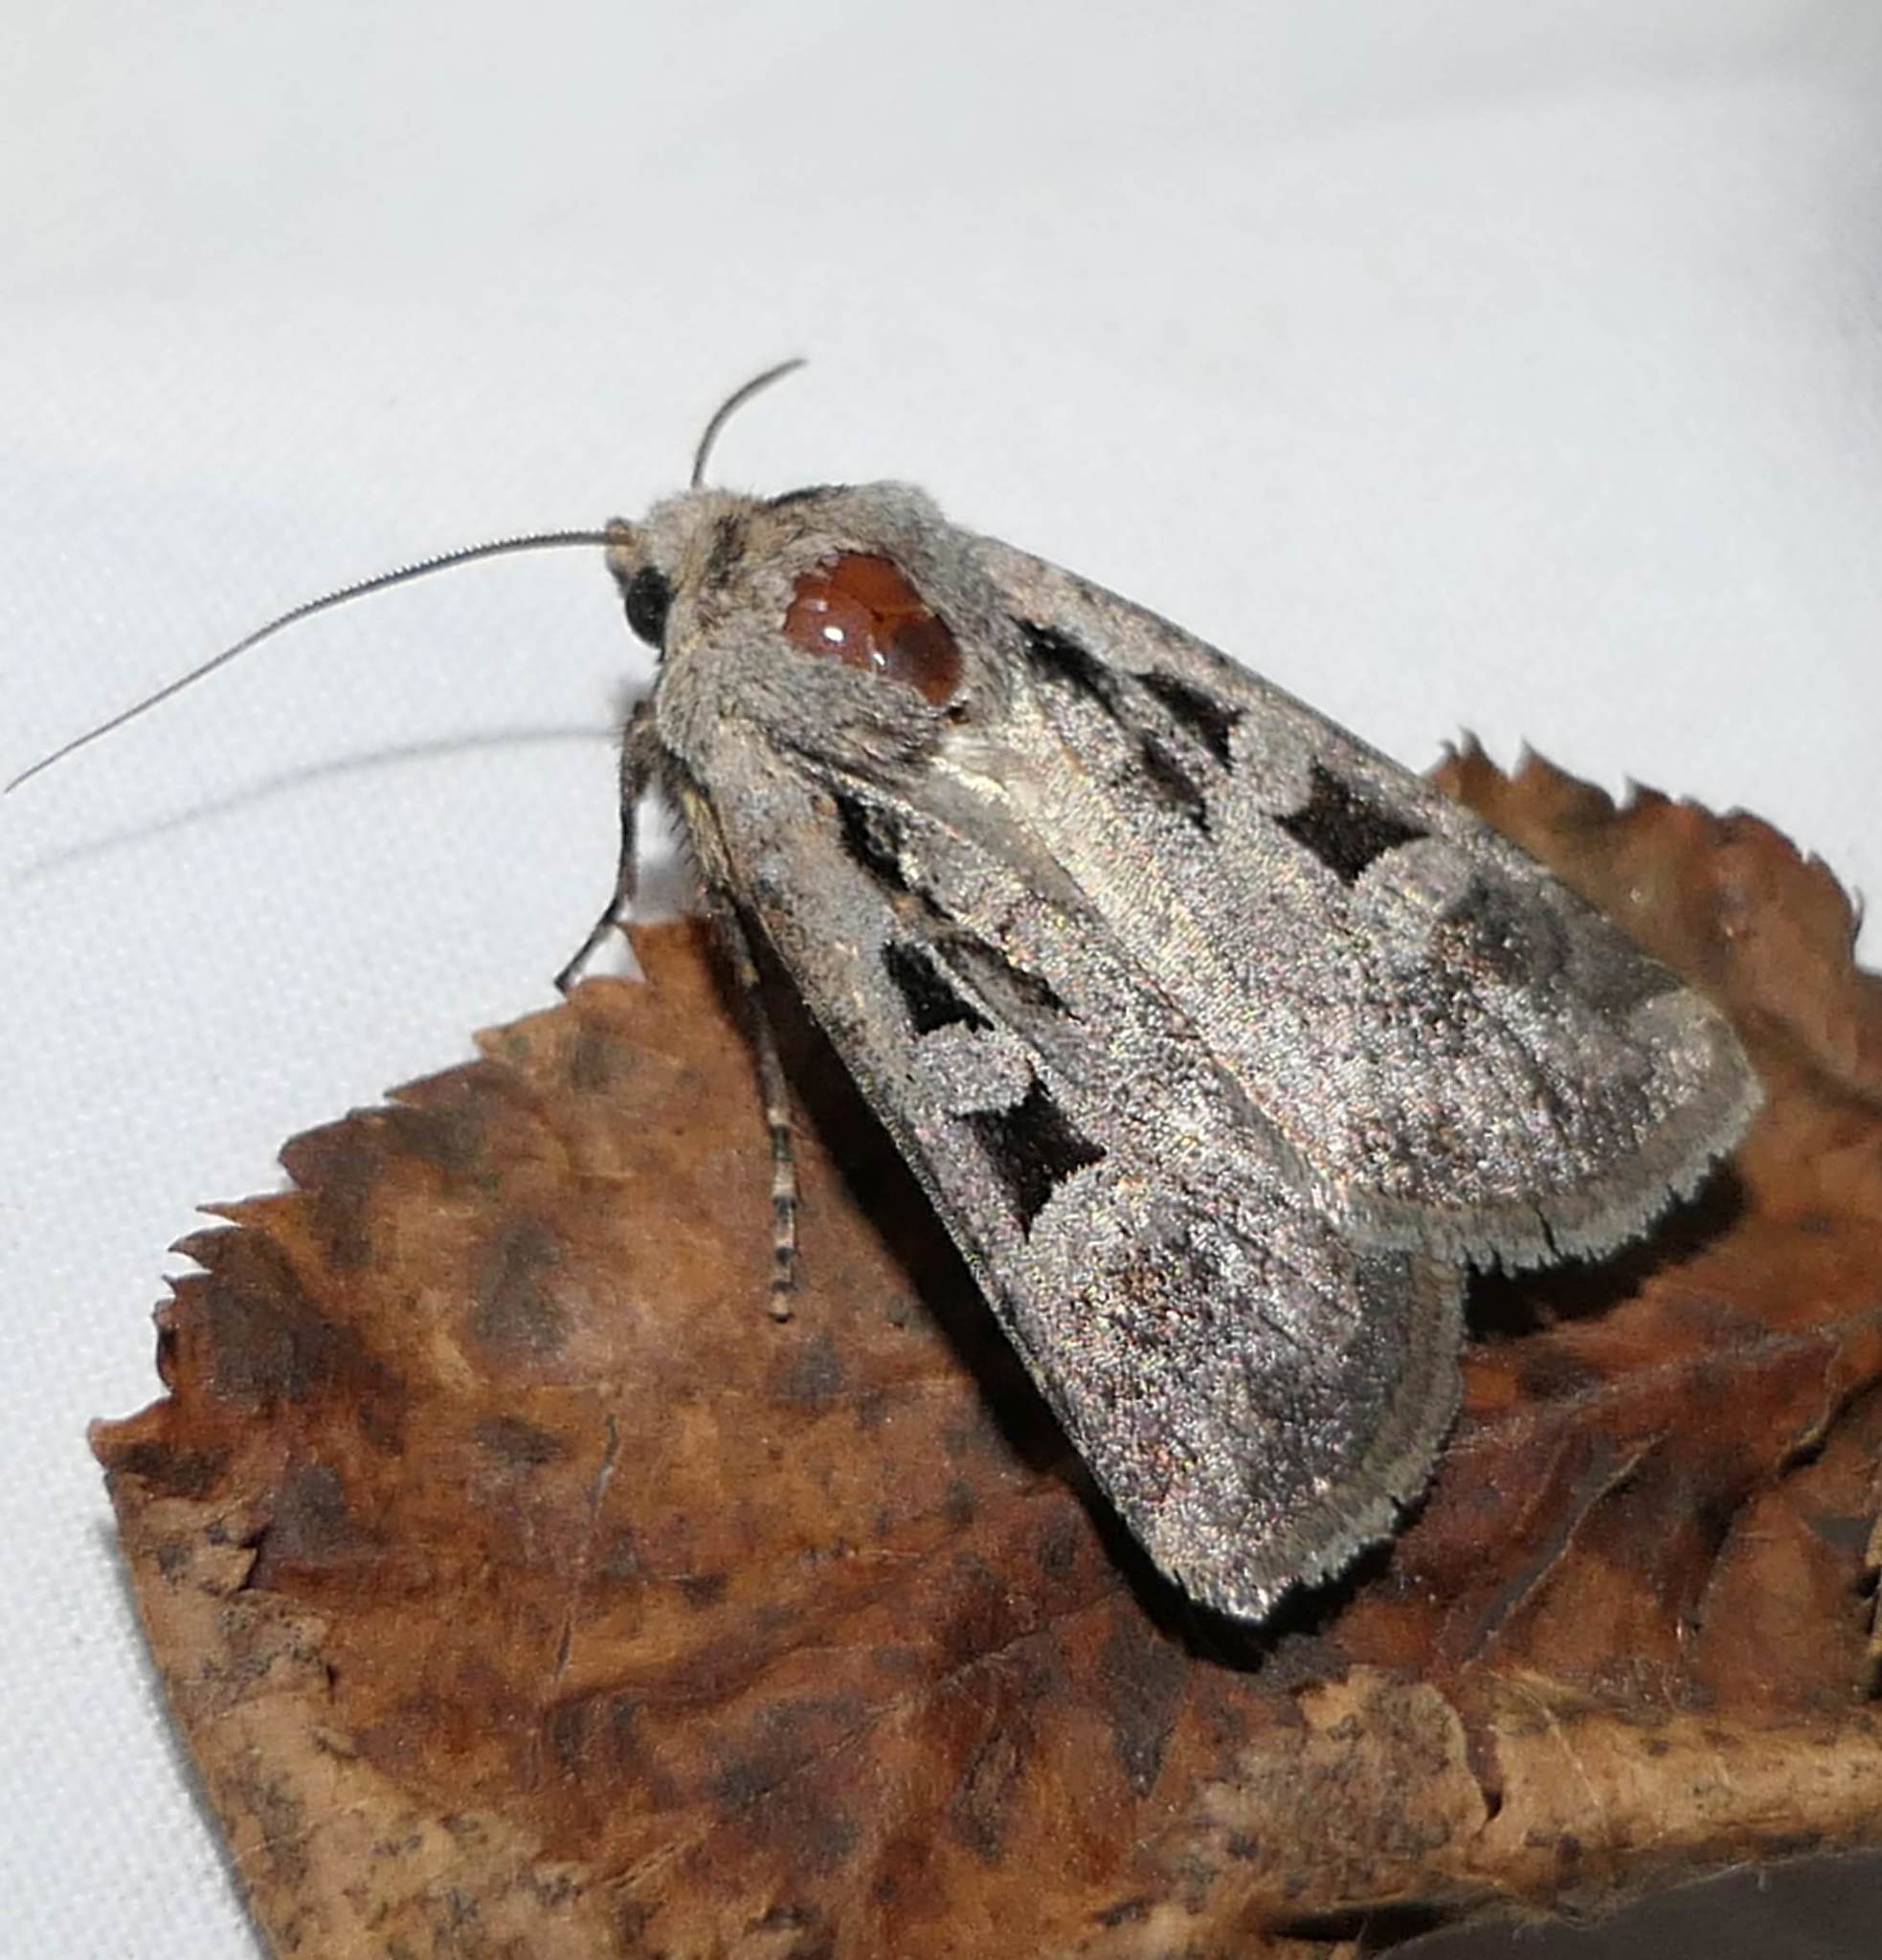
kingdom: Animalia
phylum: Arthropoda
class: Insecta
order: Lepidoptera
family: Noctuidae
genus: Euxoa
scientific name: Euxoa redimicula
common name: Fillet dart
